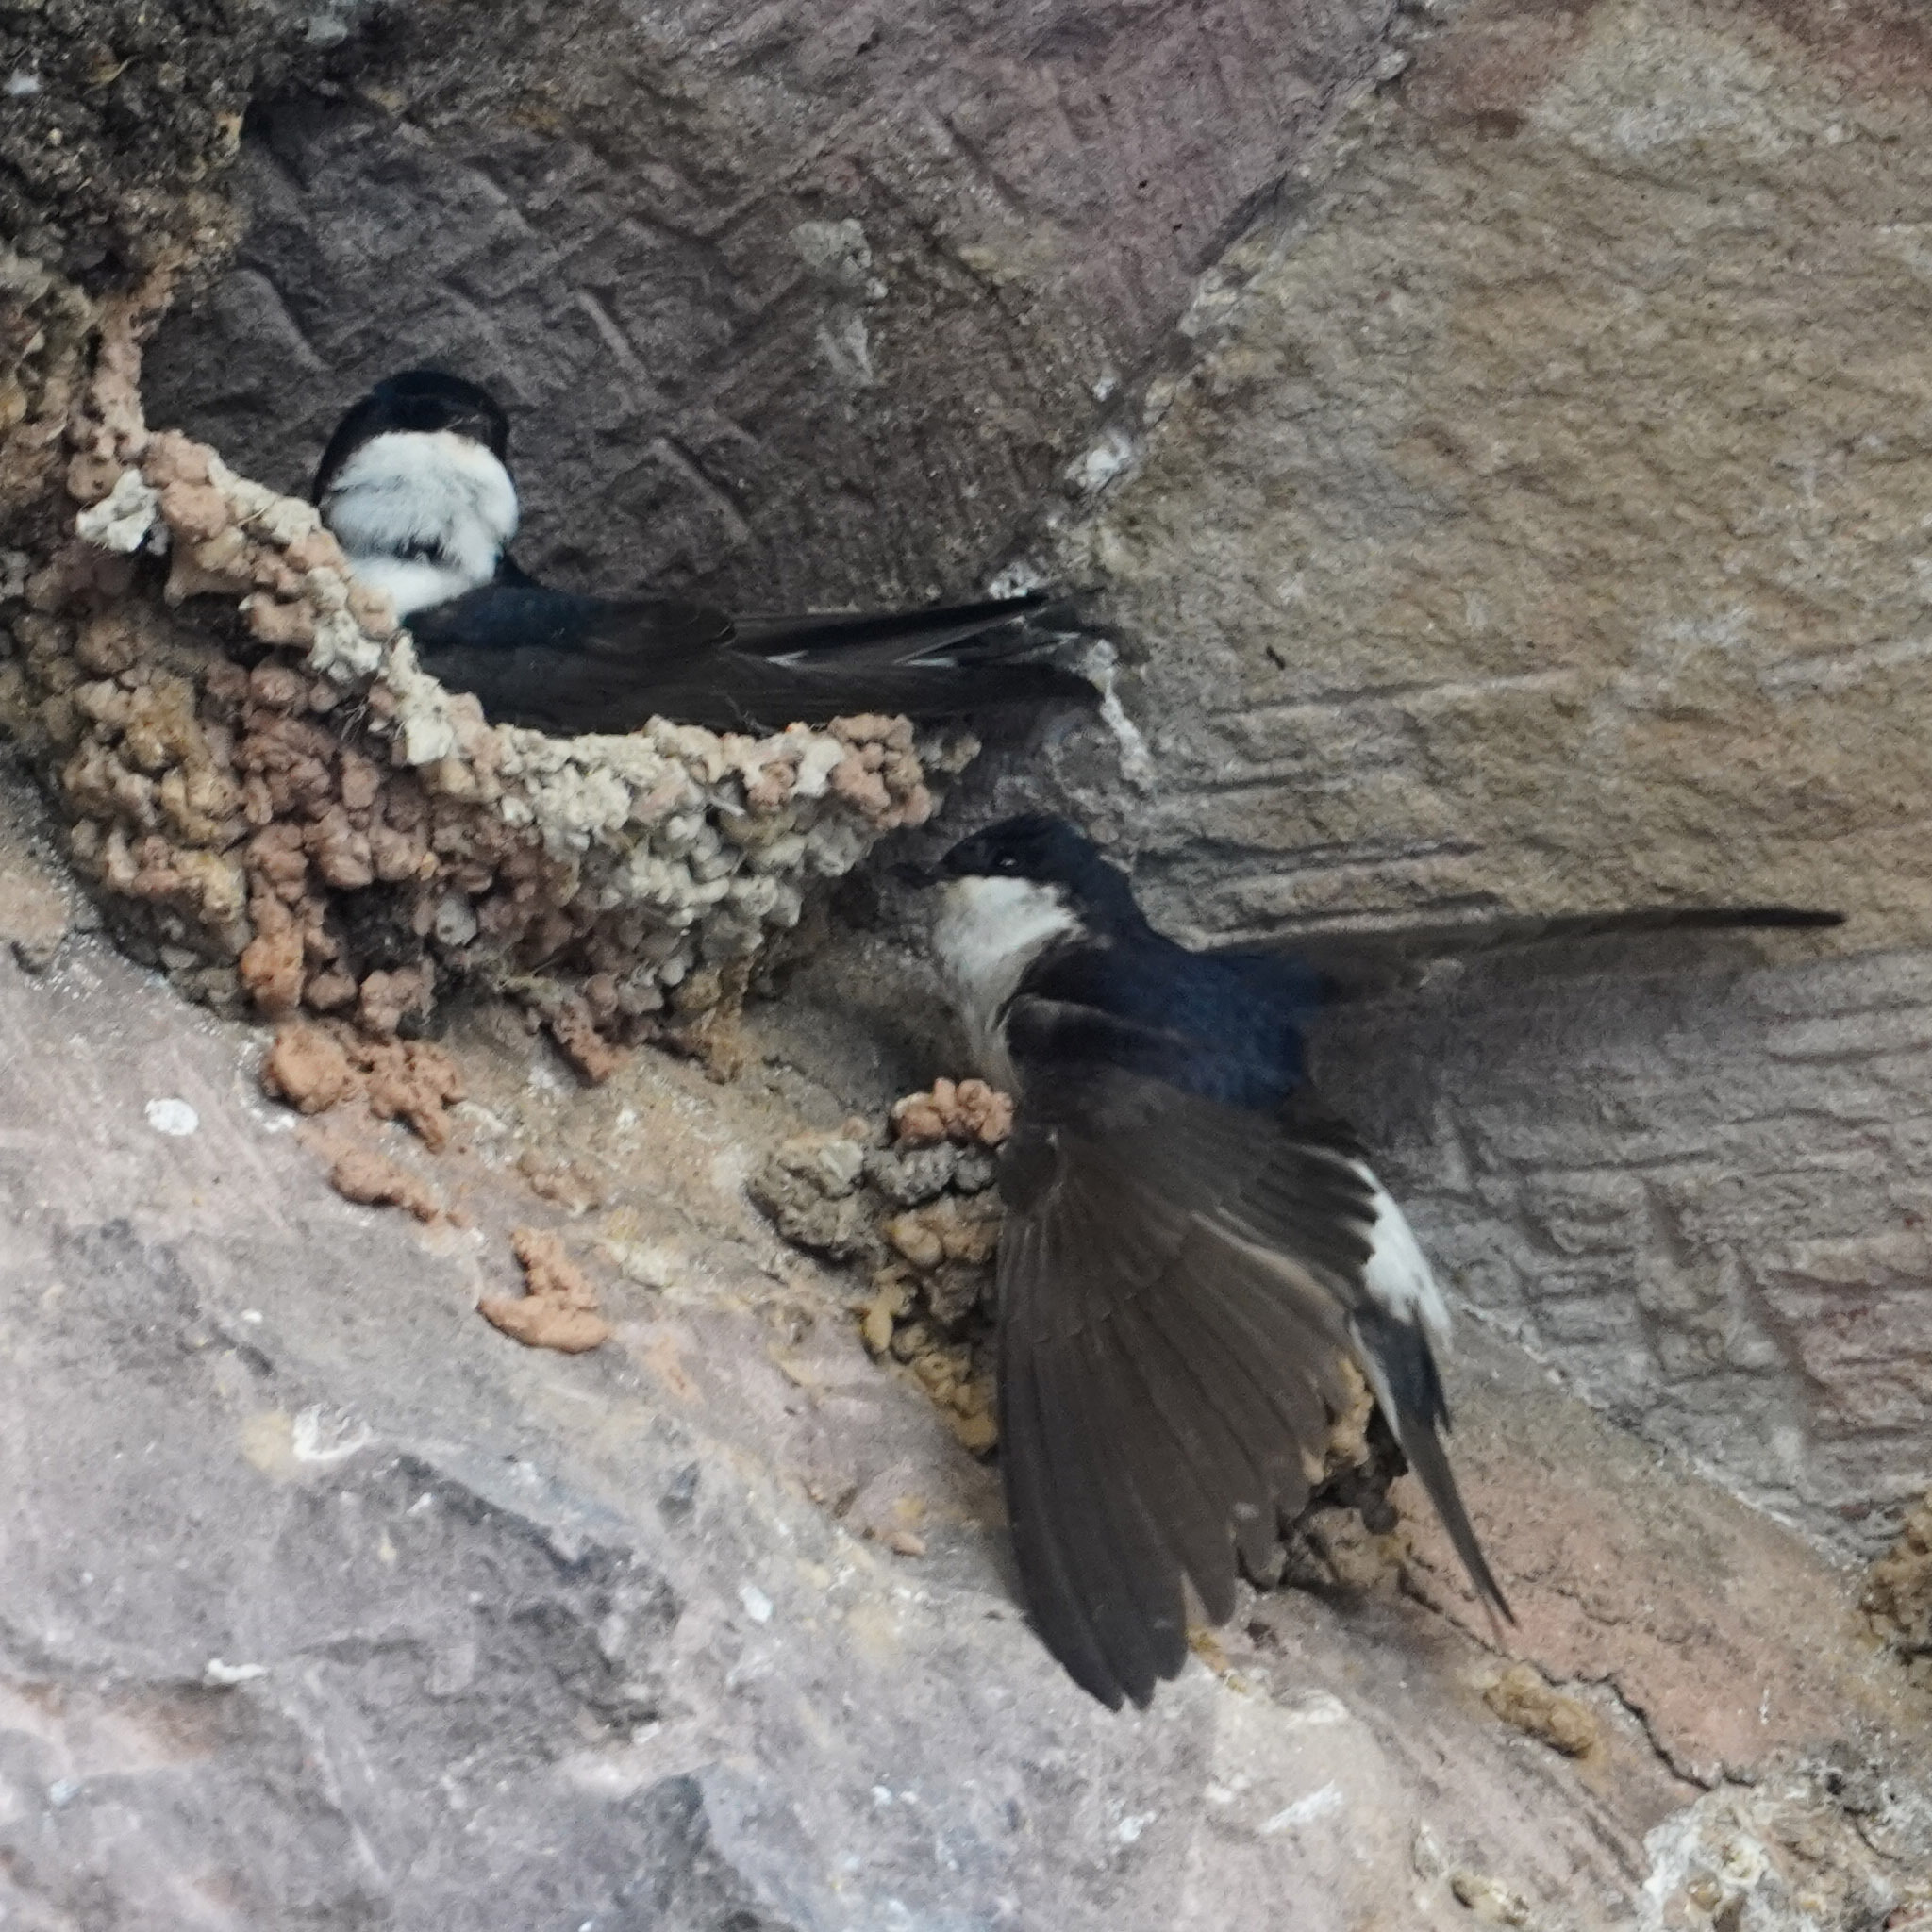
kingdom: Animalia
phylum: Chordata
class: Aves
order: Passeriformes
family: Hirundinidae
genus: Delichon
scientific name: Delichon urbicum
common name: Common house martin
